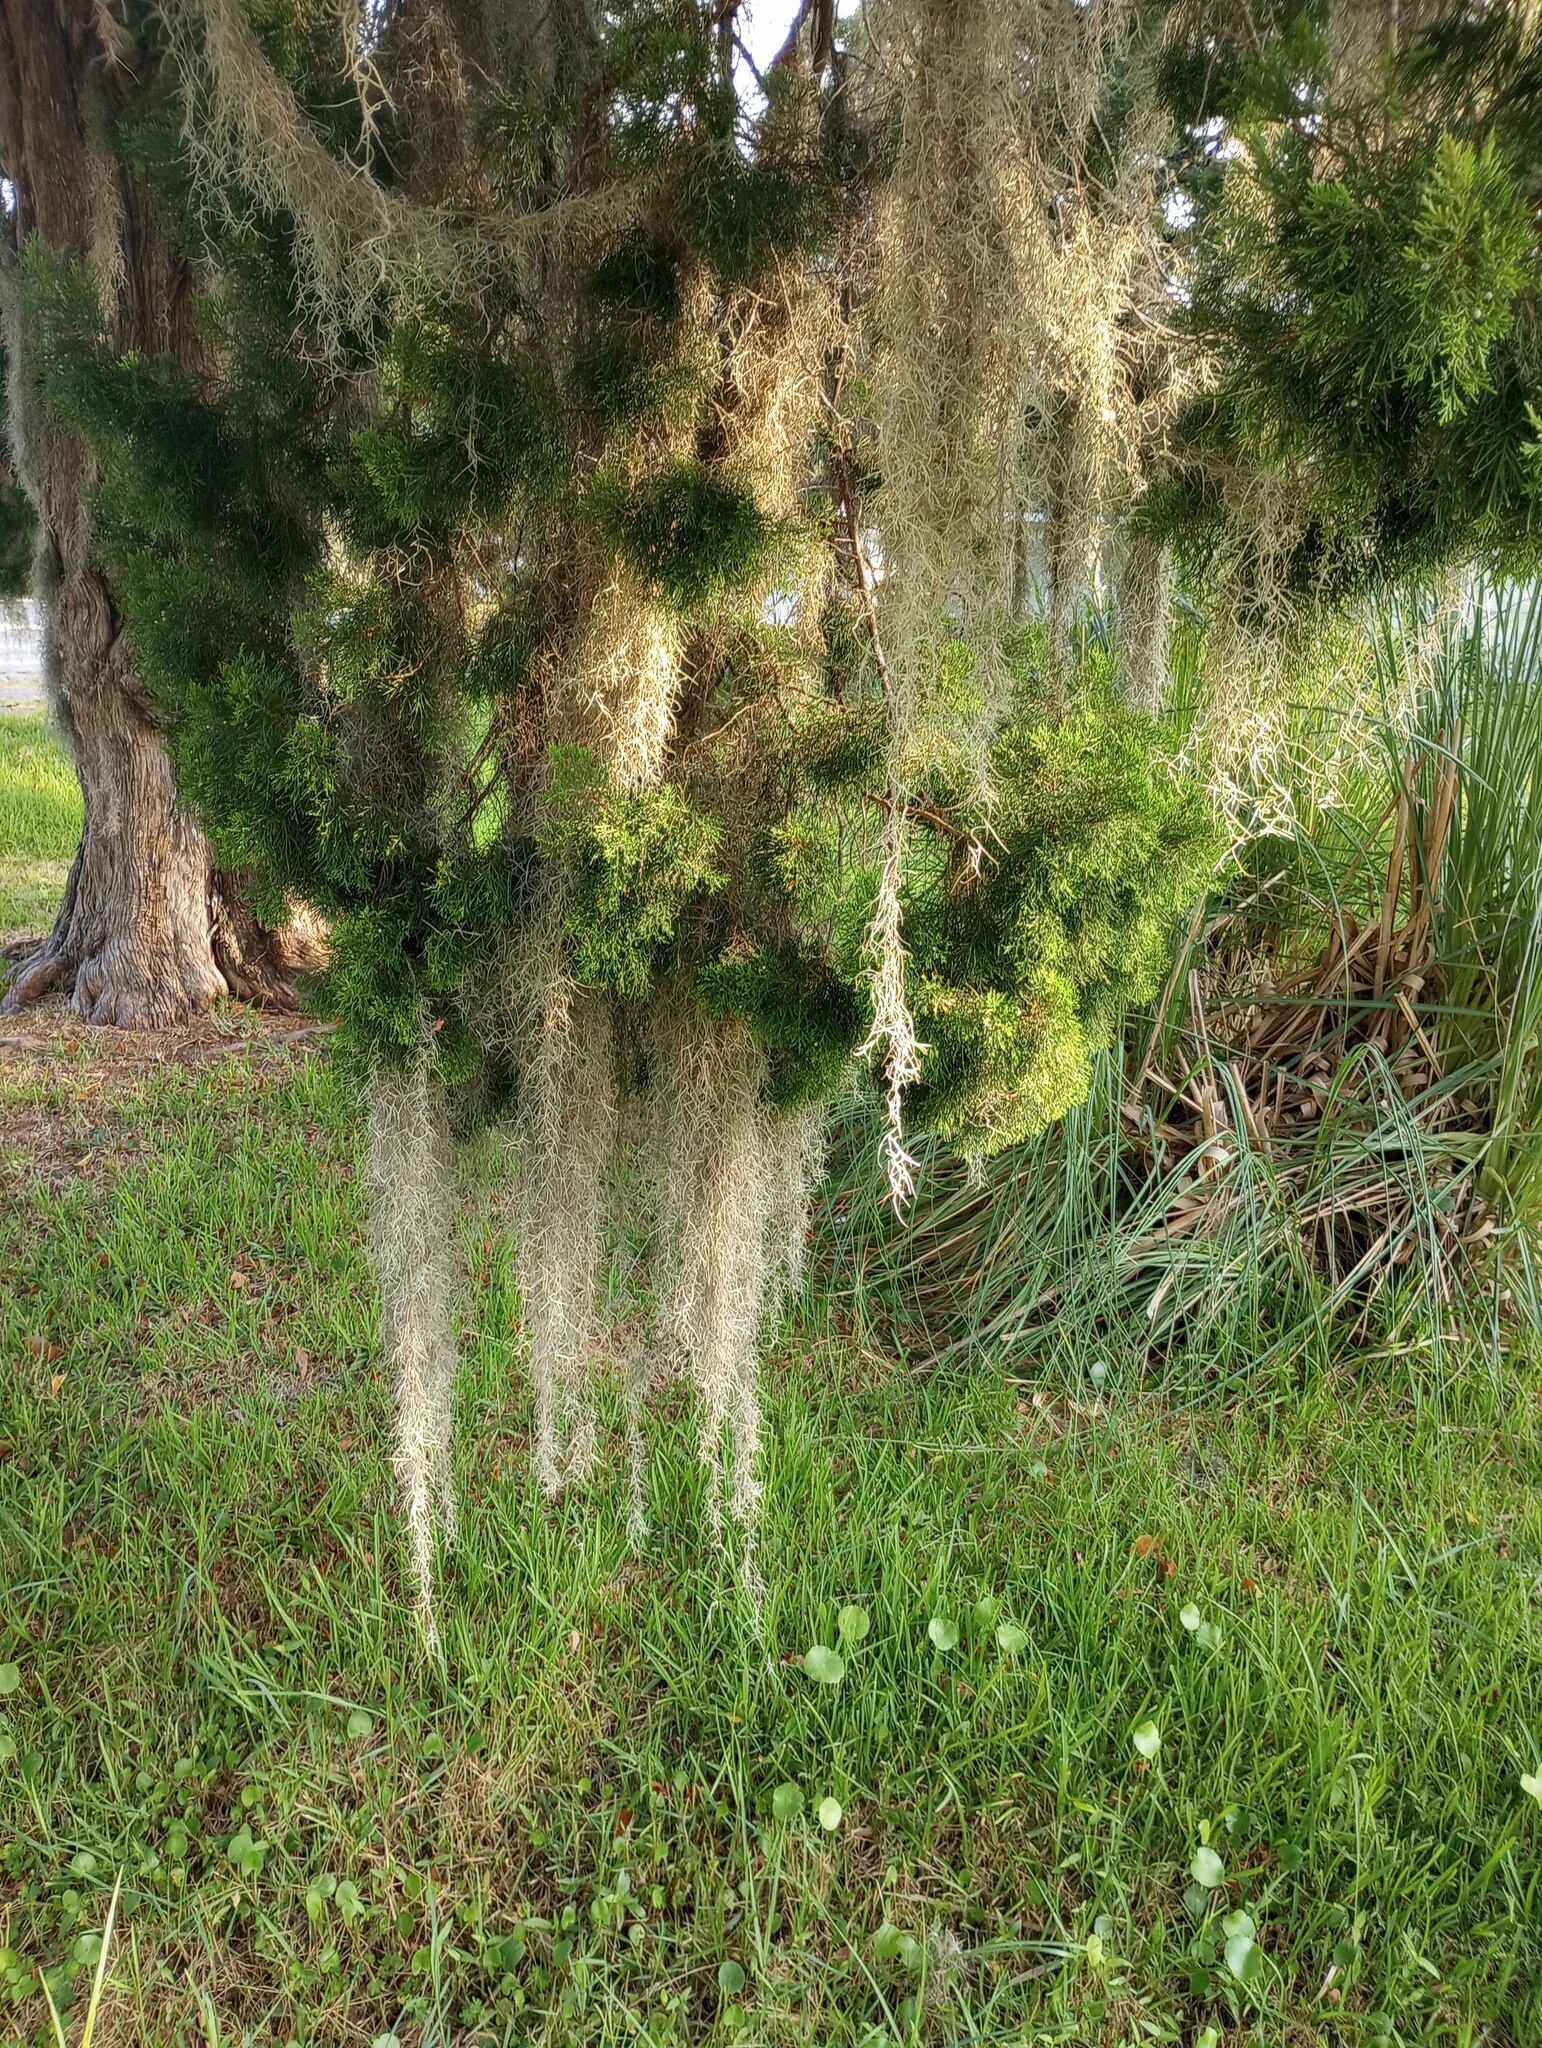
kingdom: Plantae
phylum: Tracheophyta
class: Liliopsida
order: Poales
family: Bromeliaceae
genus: Tillandsia
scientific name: Tillandsia usneoides
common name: Spanish moss
